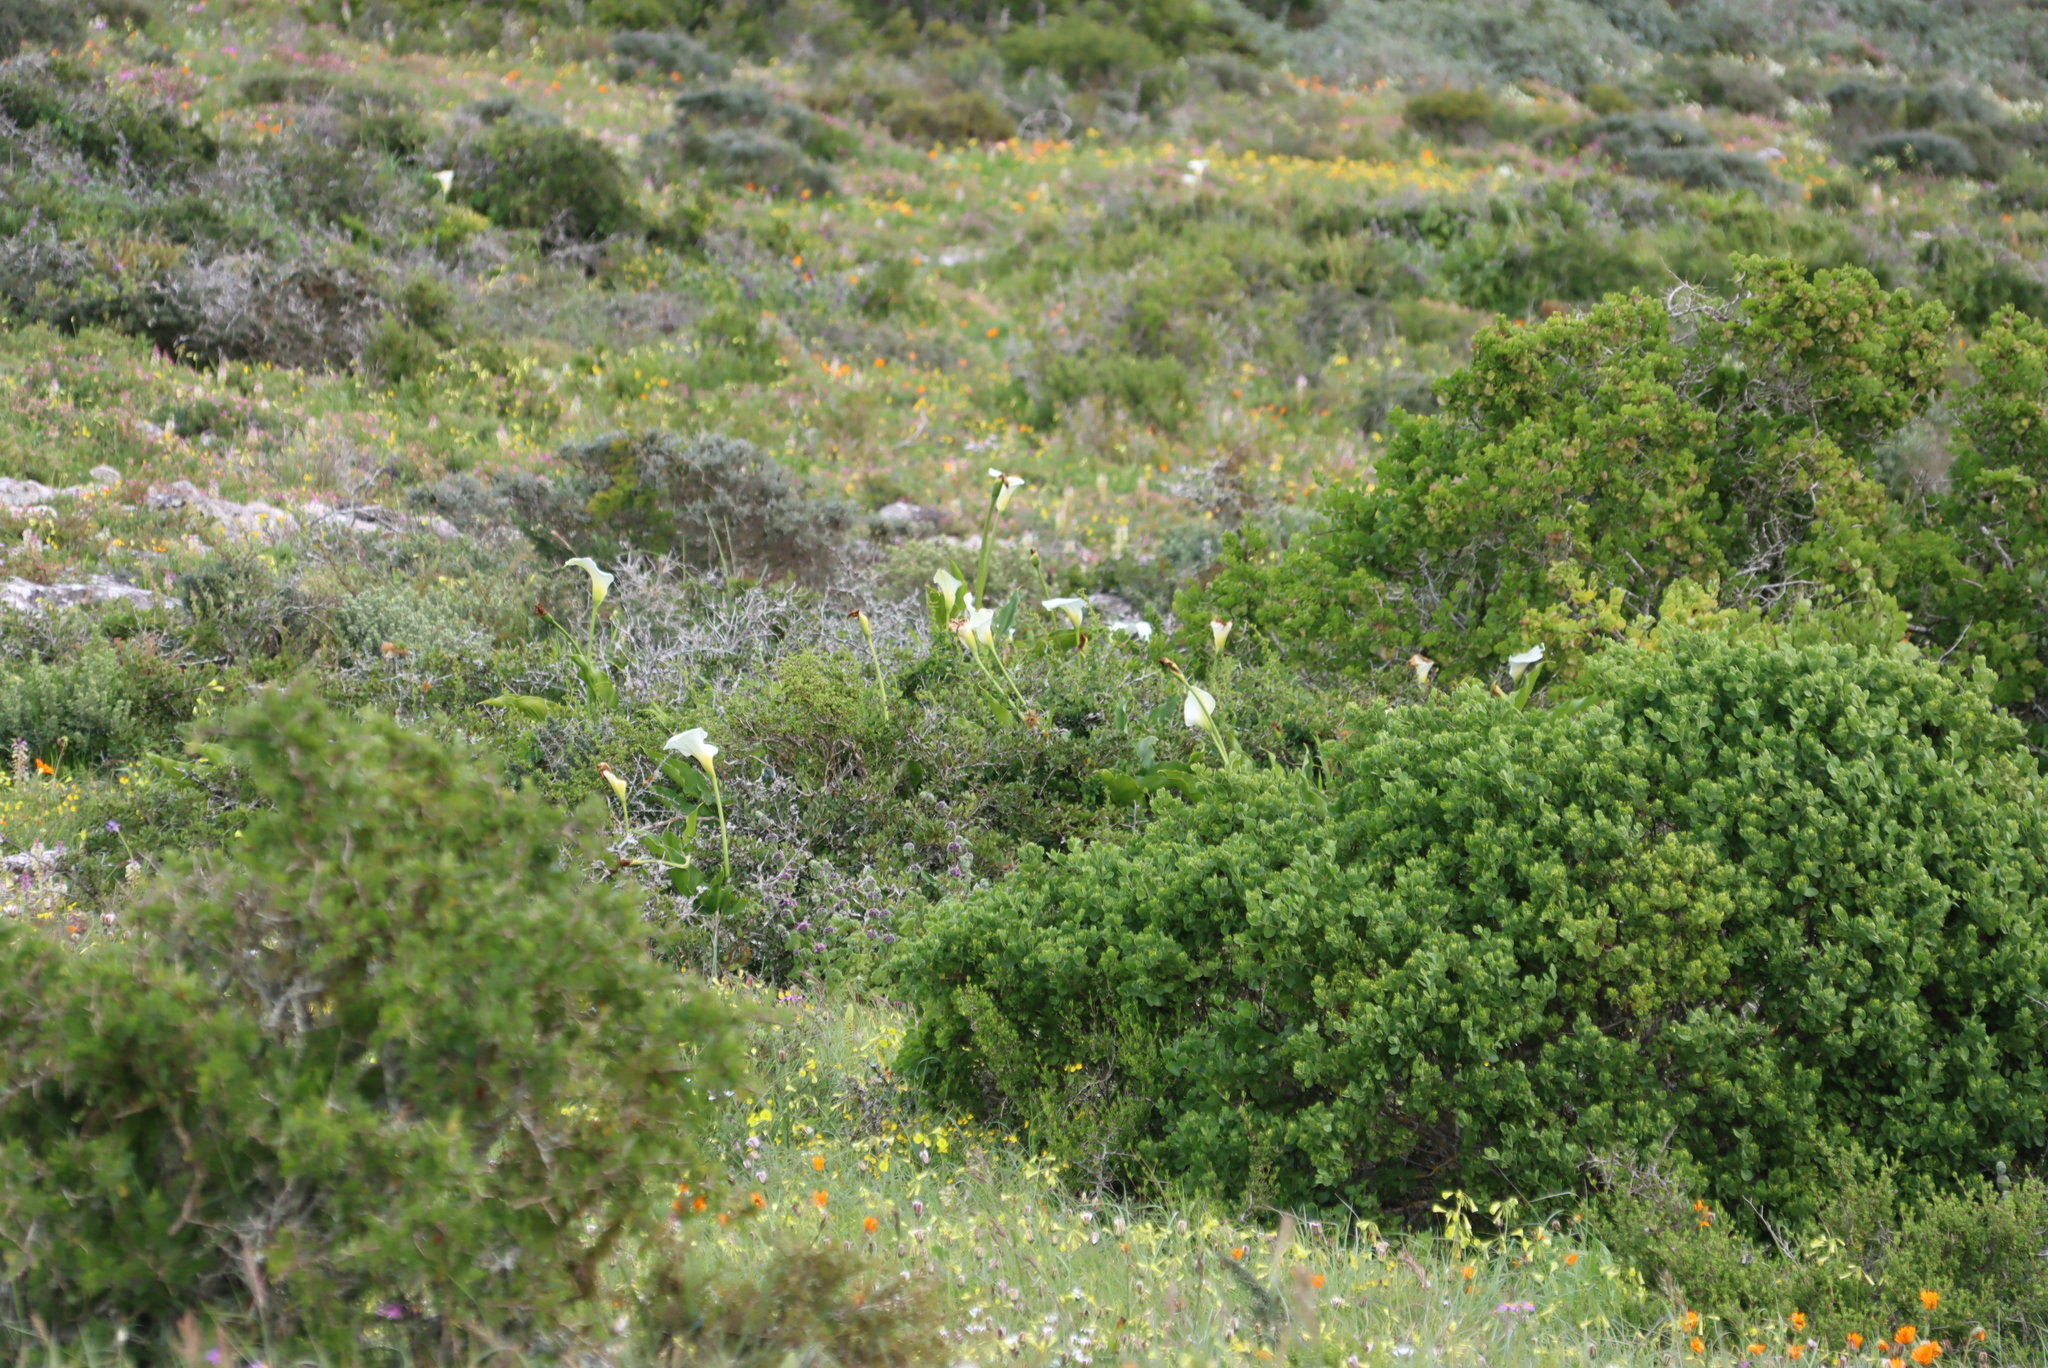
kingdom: Plantae
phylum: Tracheophyta
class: Liliopsida
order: Alismatales
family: Araceae
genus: Zantedeschia
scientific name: Zantedeschia aethiopica
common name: Altar-lily
